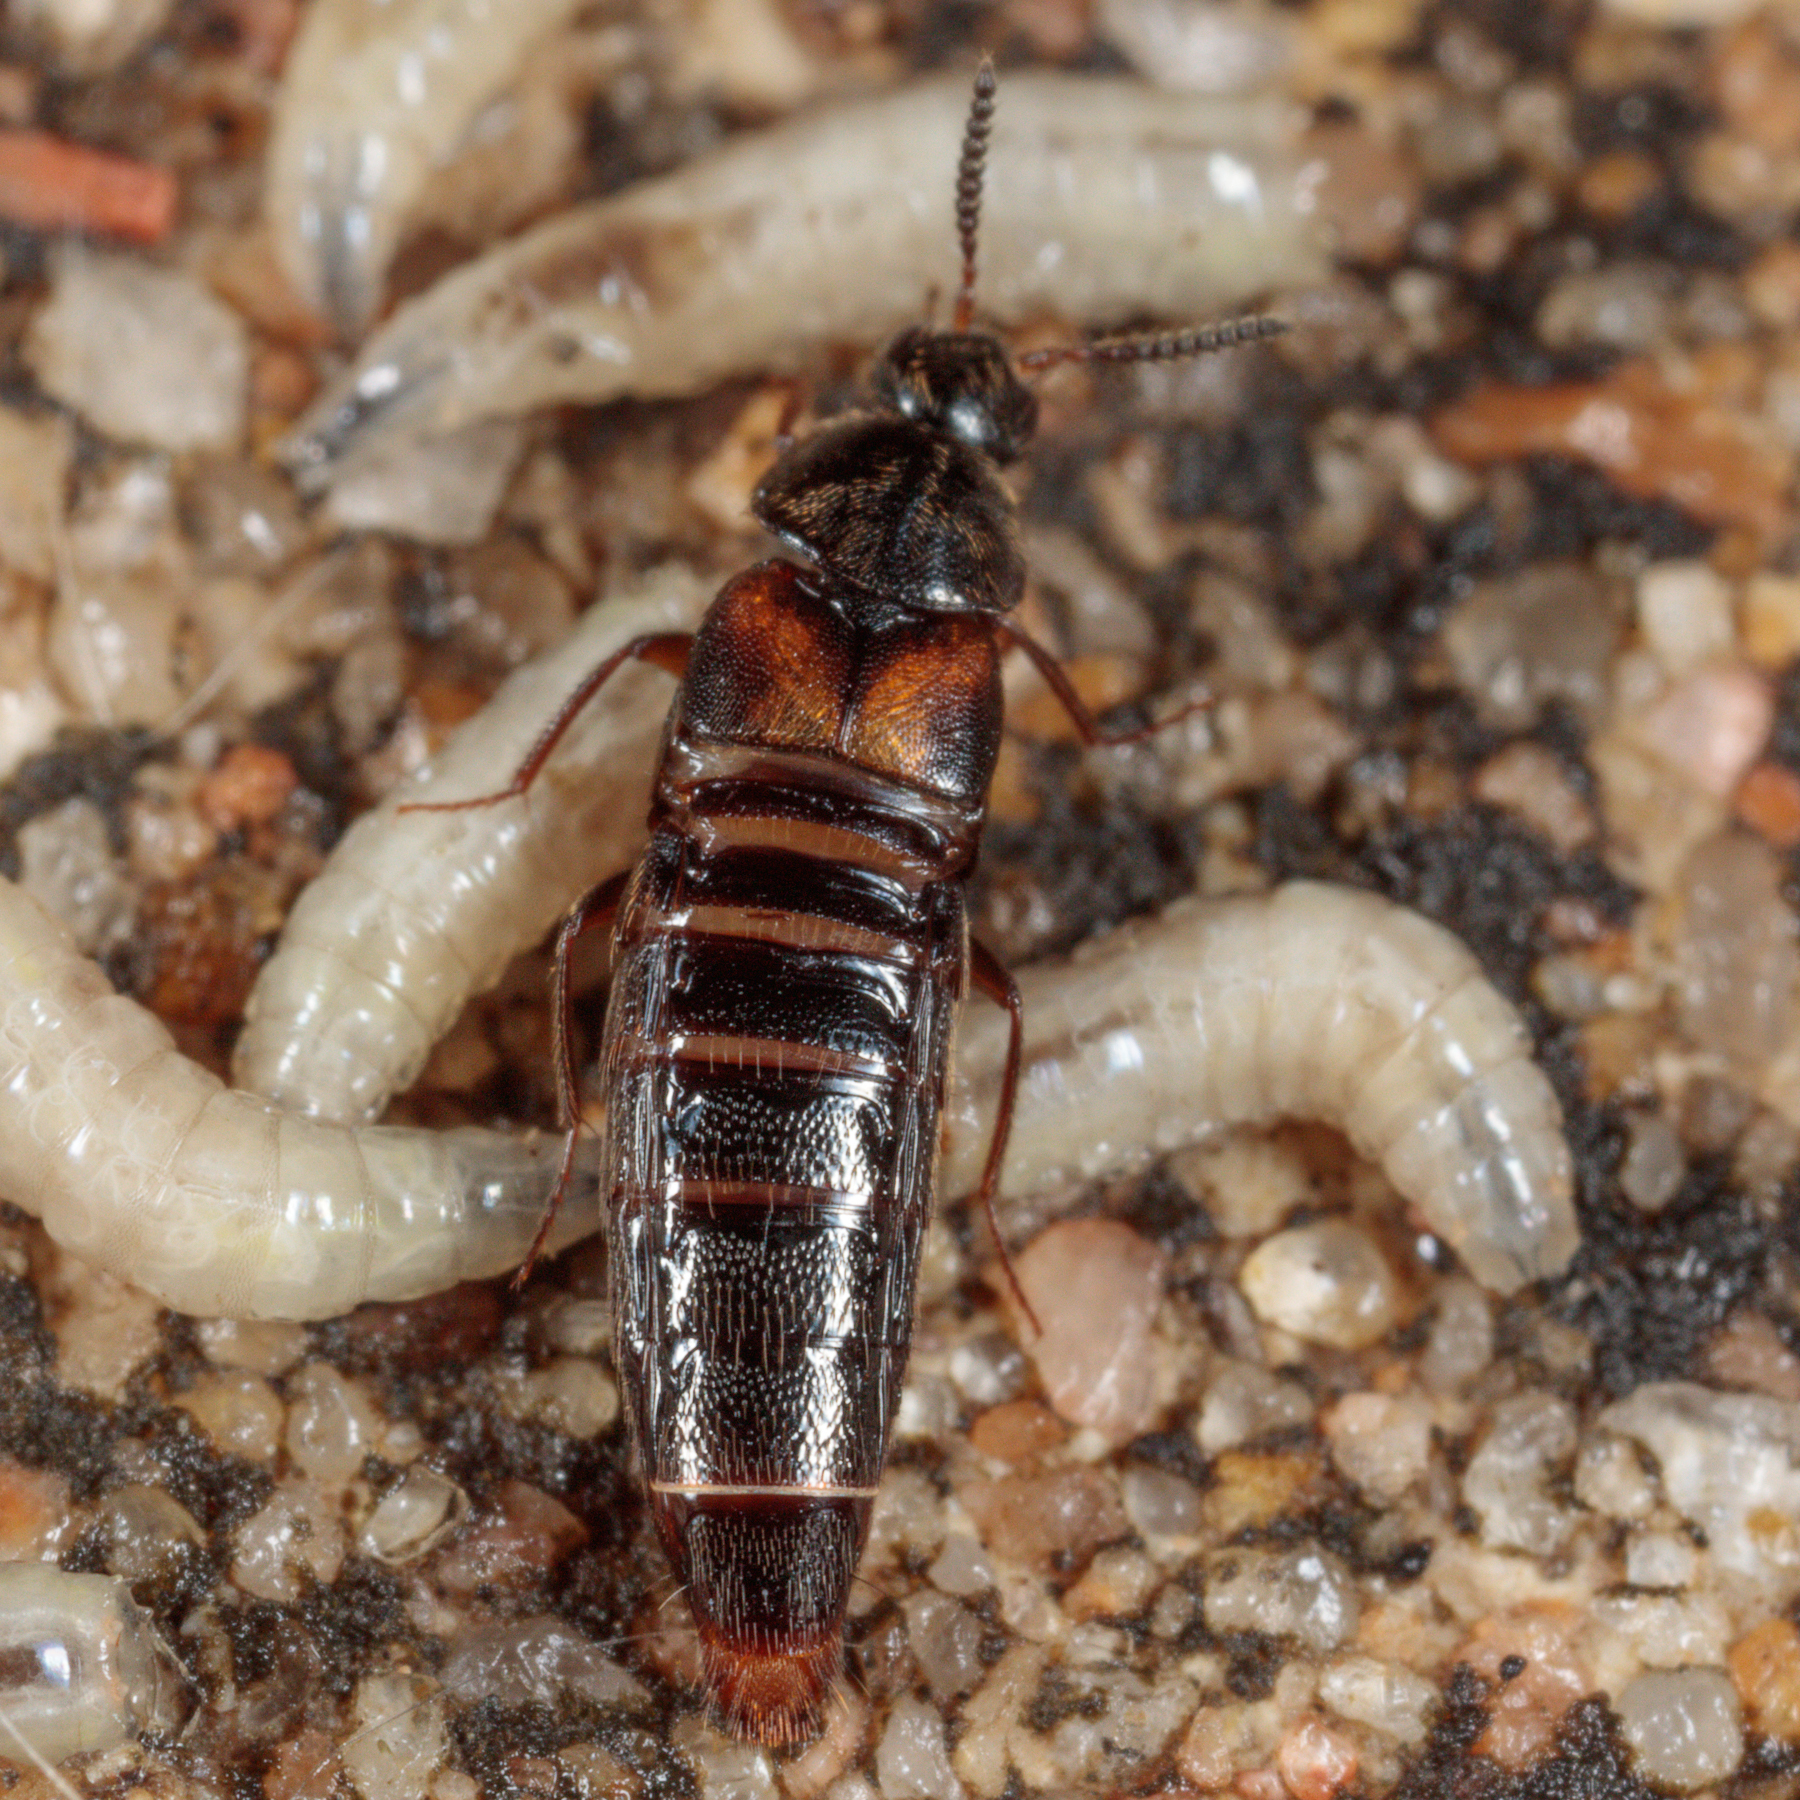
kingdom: Animalia
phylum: Arthropoda
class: Insecta
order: Coleoptera
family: Staphylinidae
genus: Aleochara
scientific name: Aleochara lustrica
